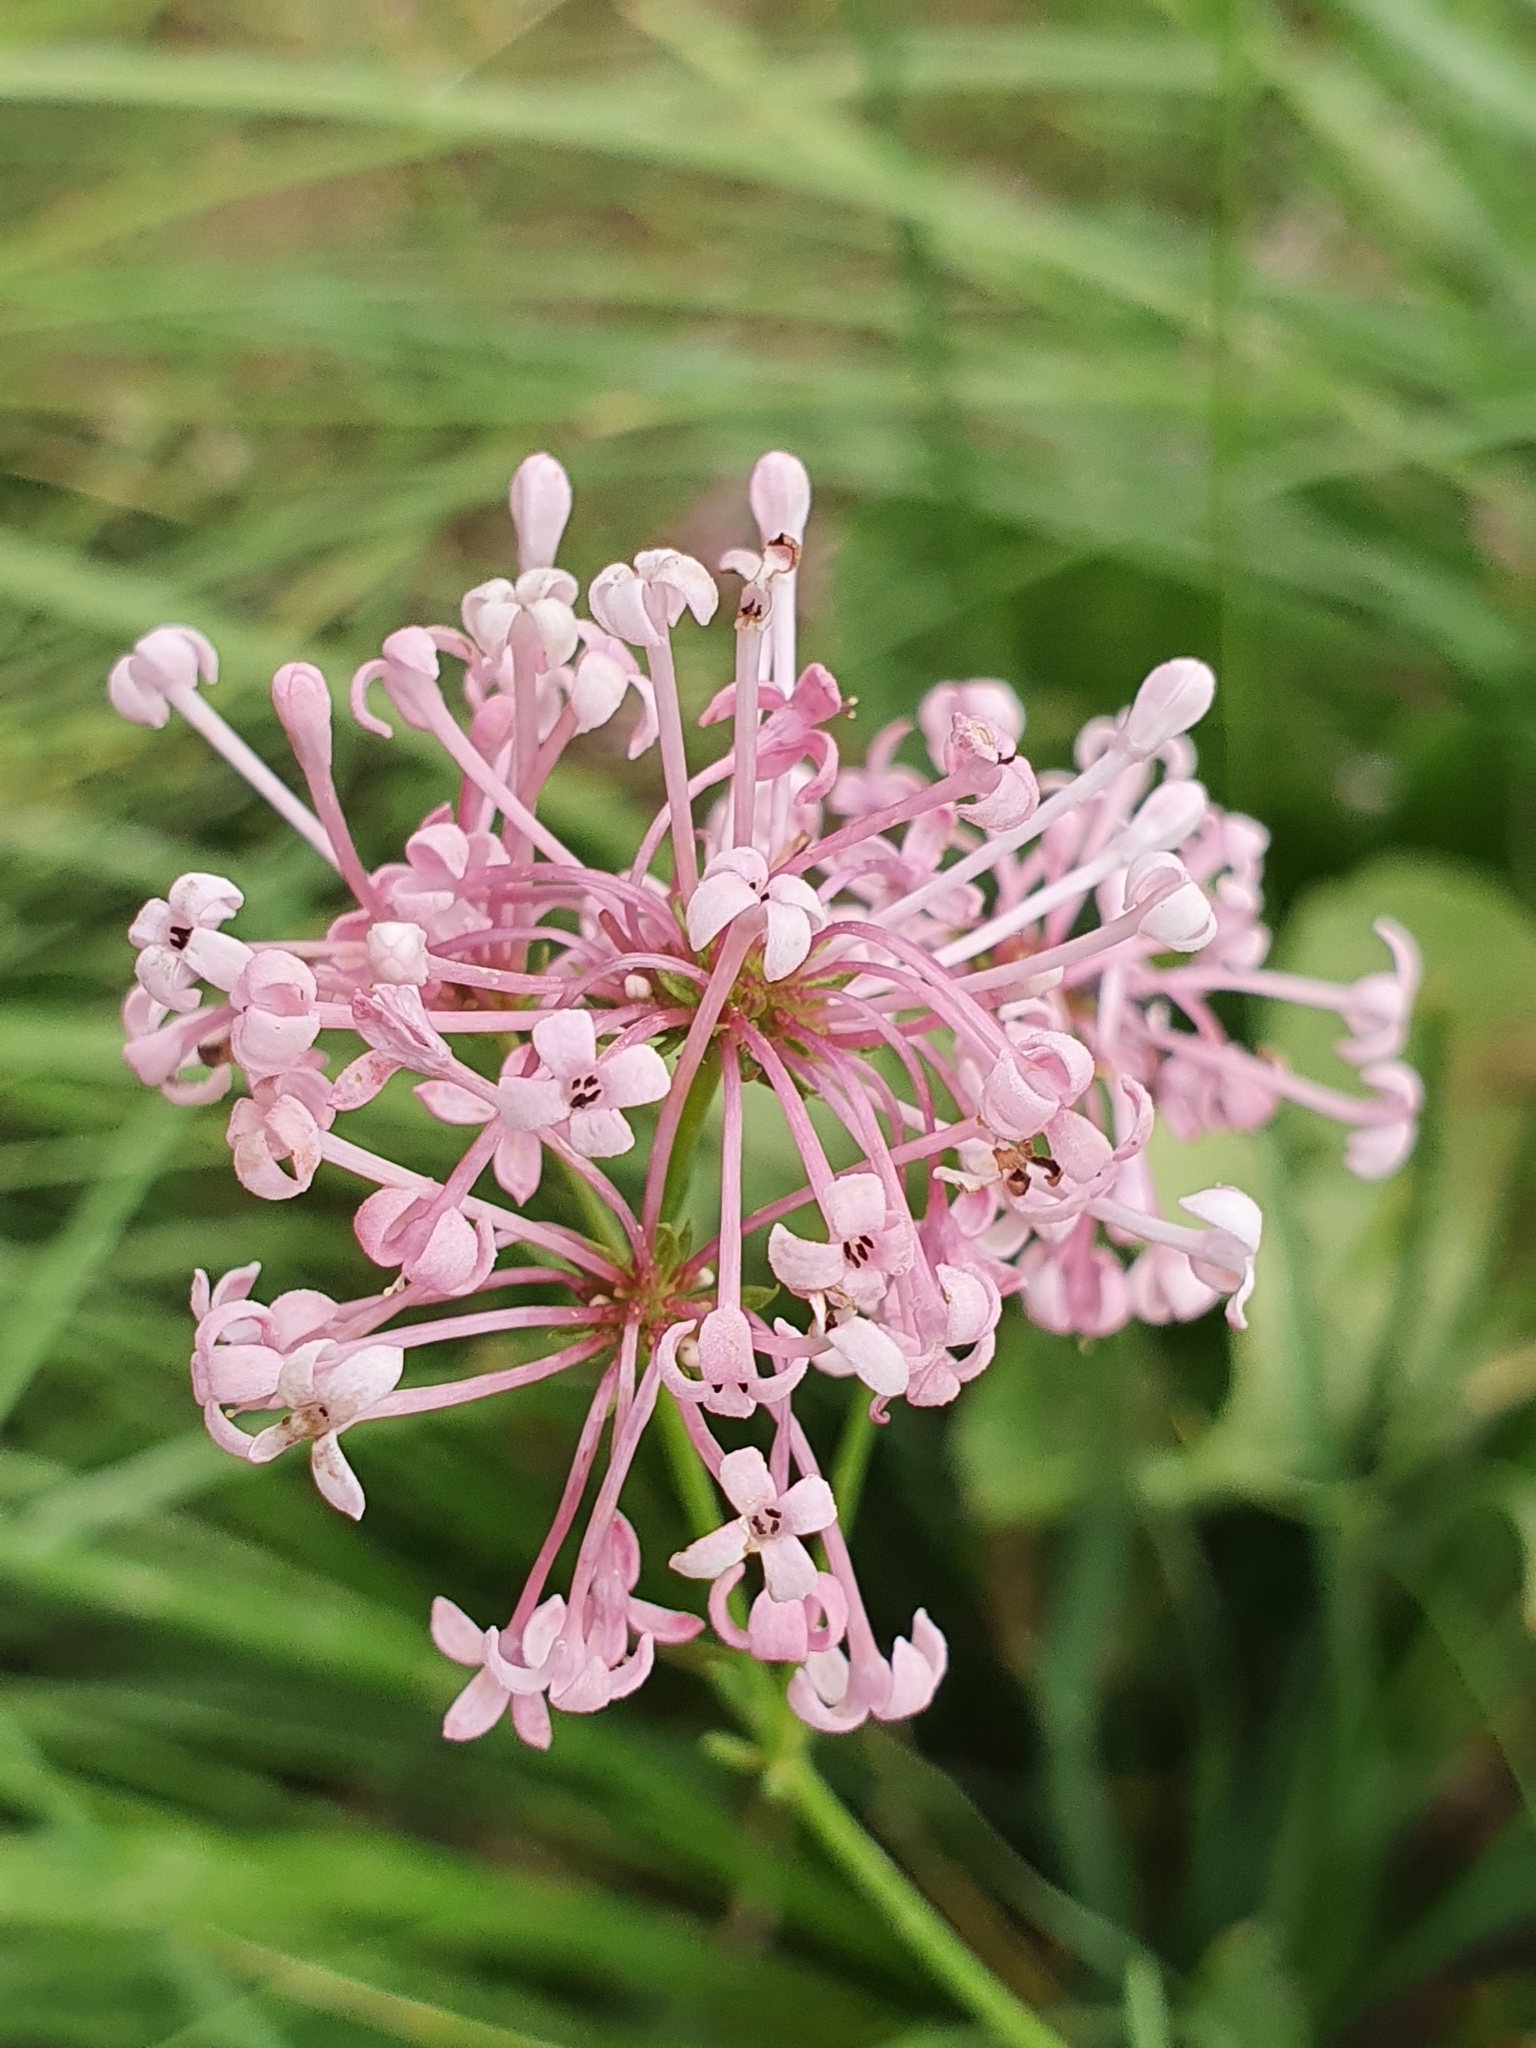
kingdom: Plantae
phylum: Tracheophyta
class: Magnoliopsida
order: Gentianales
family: Rubiaceae
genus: Hexaphylla
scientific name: Hexaphylla hirsuta
